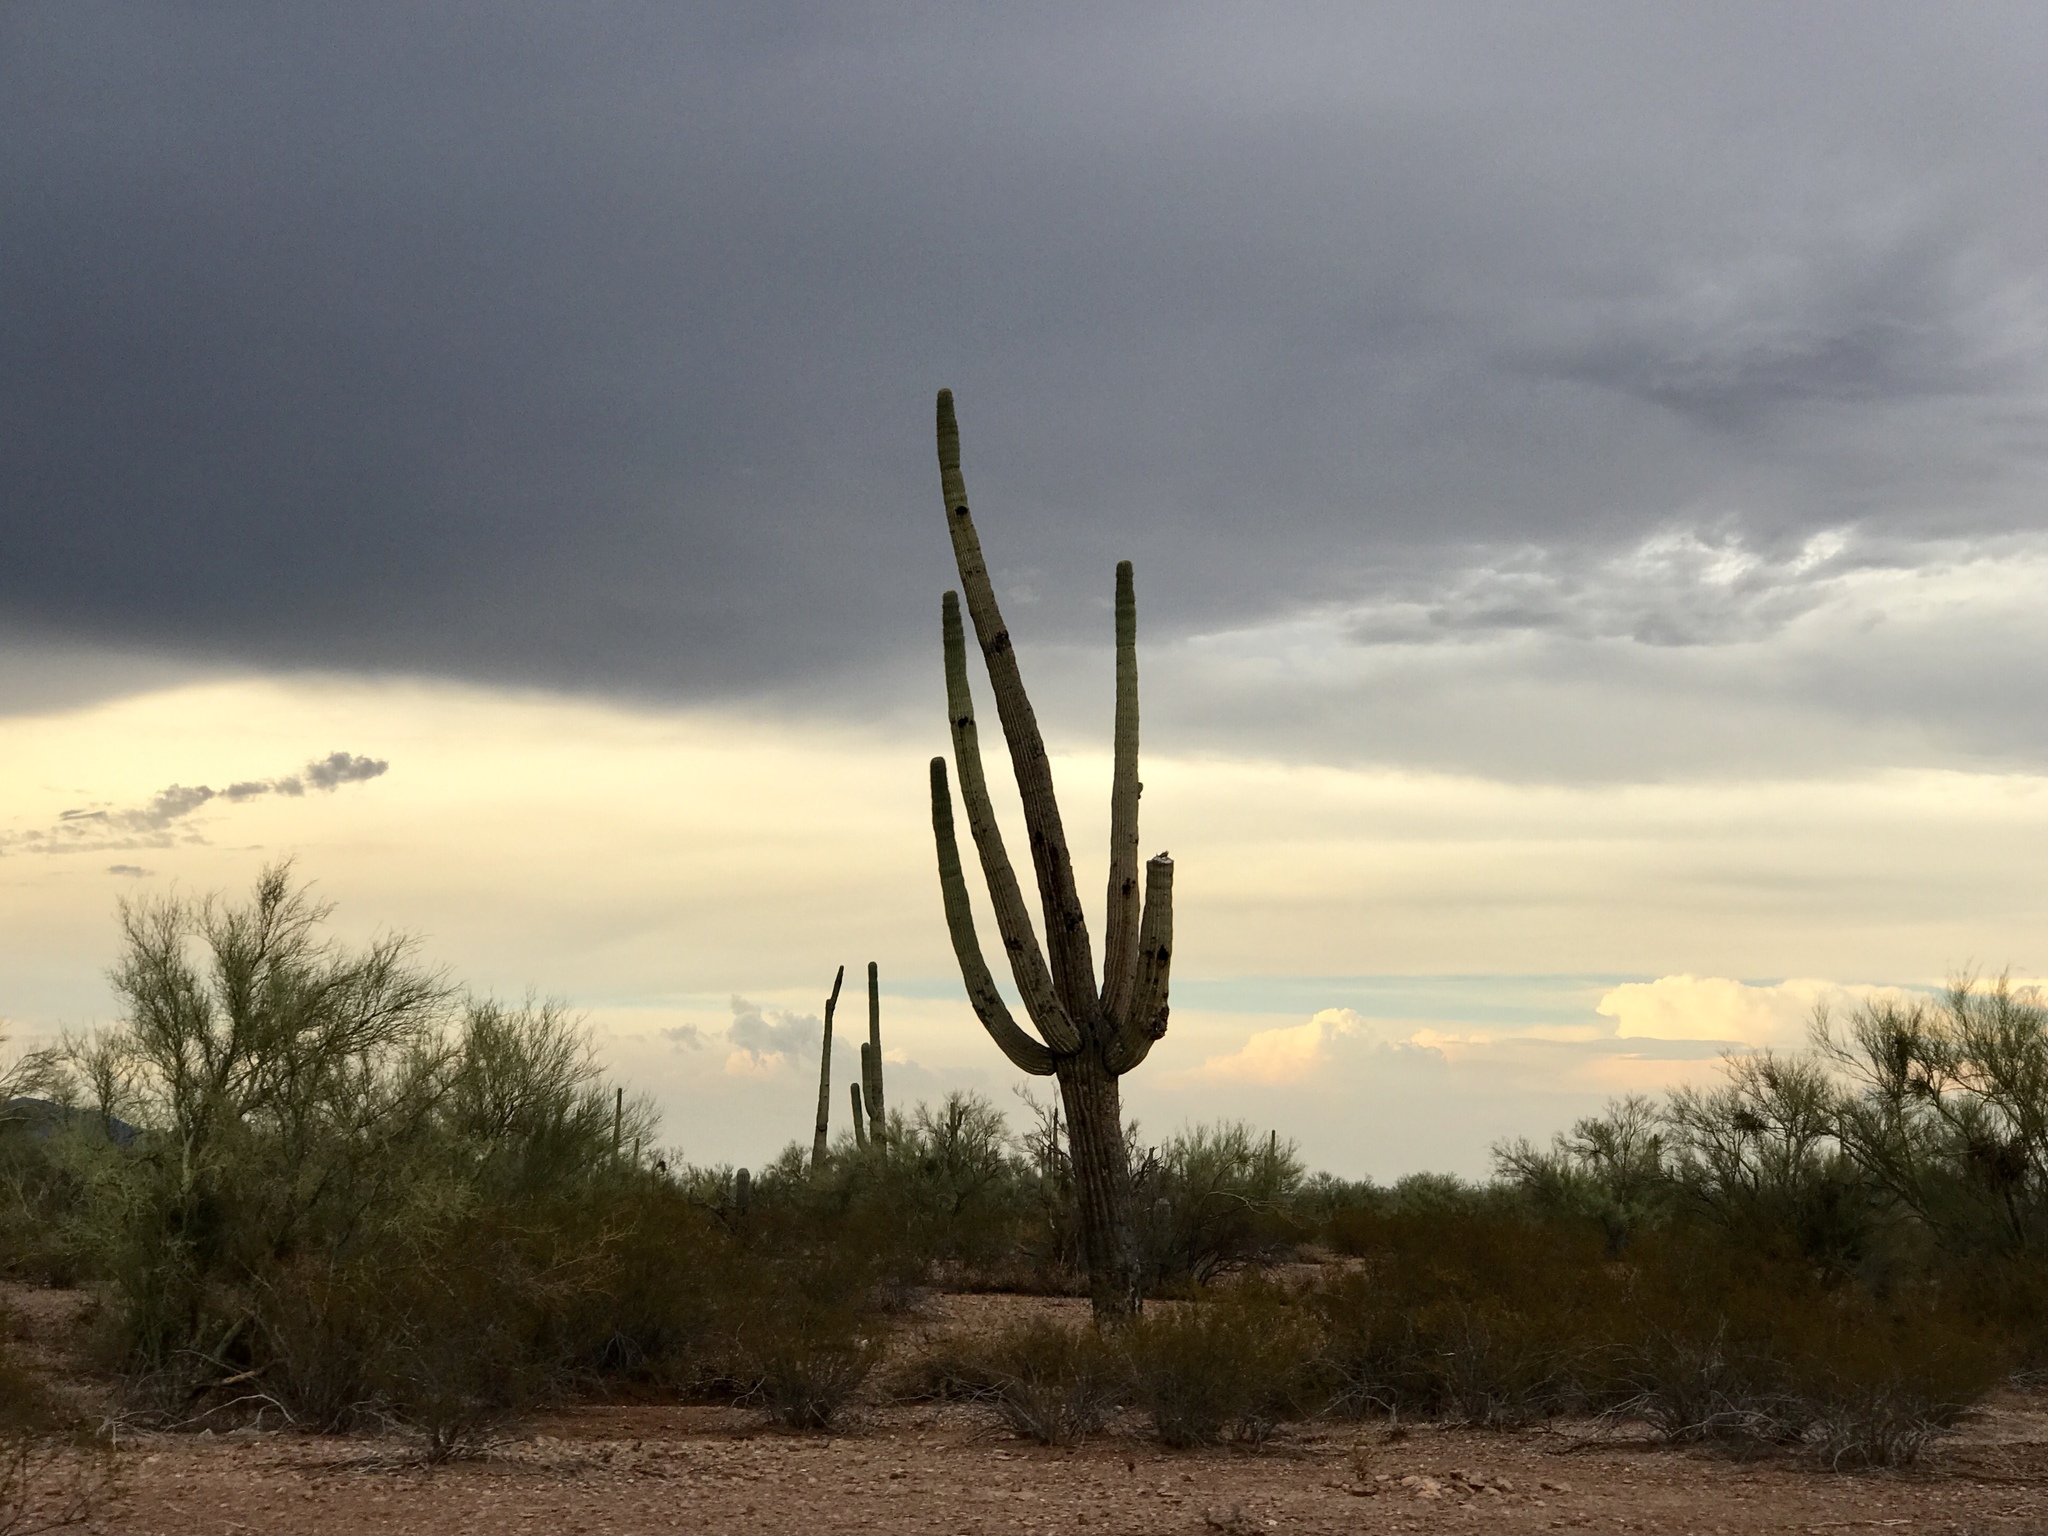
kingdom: Plantae
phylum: Tracheophyta
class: Magnoliopsida
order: Caryophyllales
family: Cactaceae
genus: Carnegiea
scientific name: Carnegiea gigantea
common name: Saguaro
